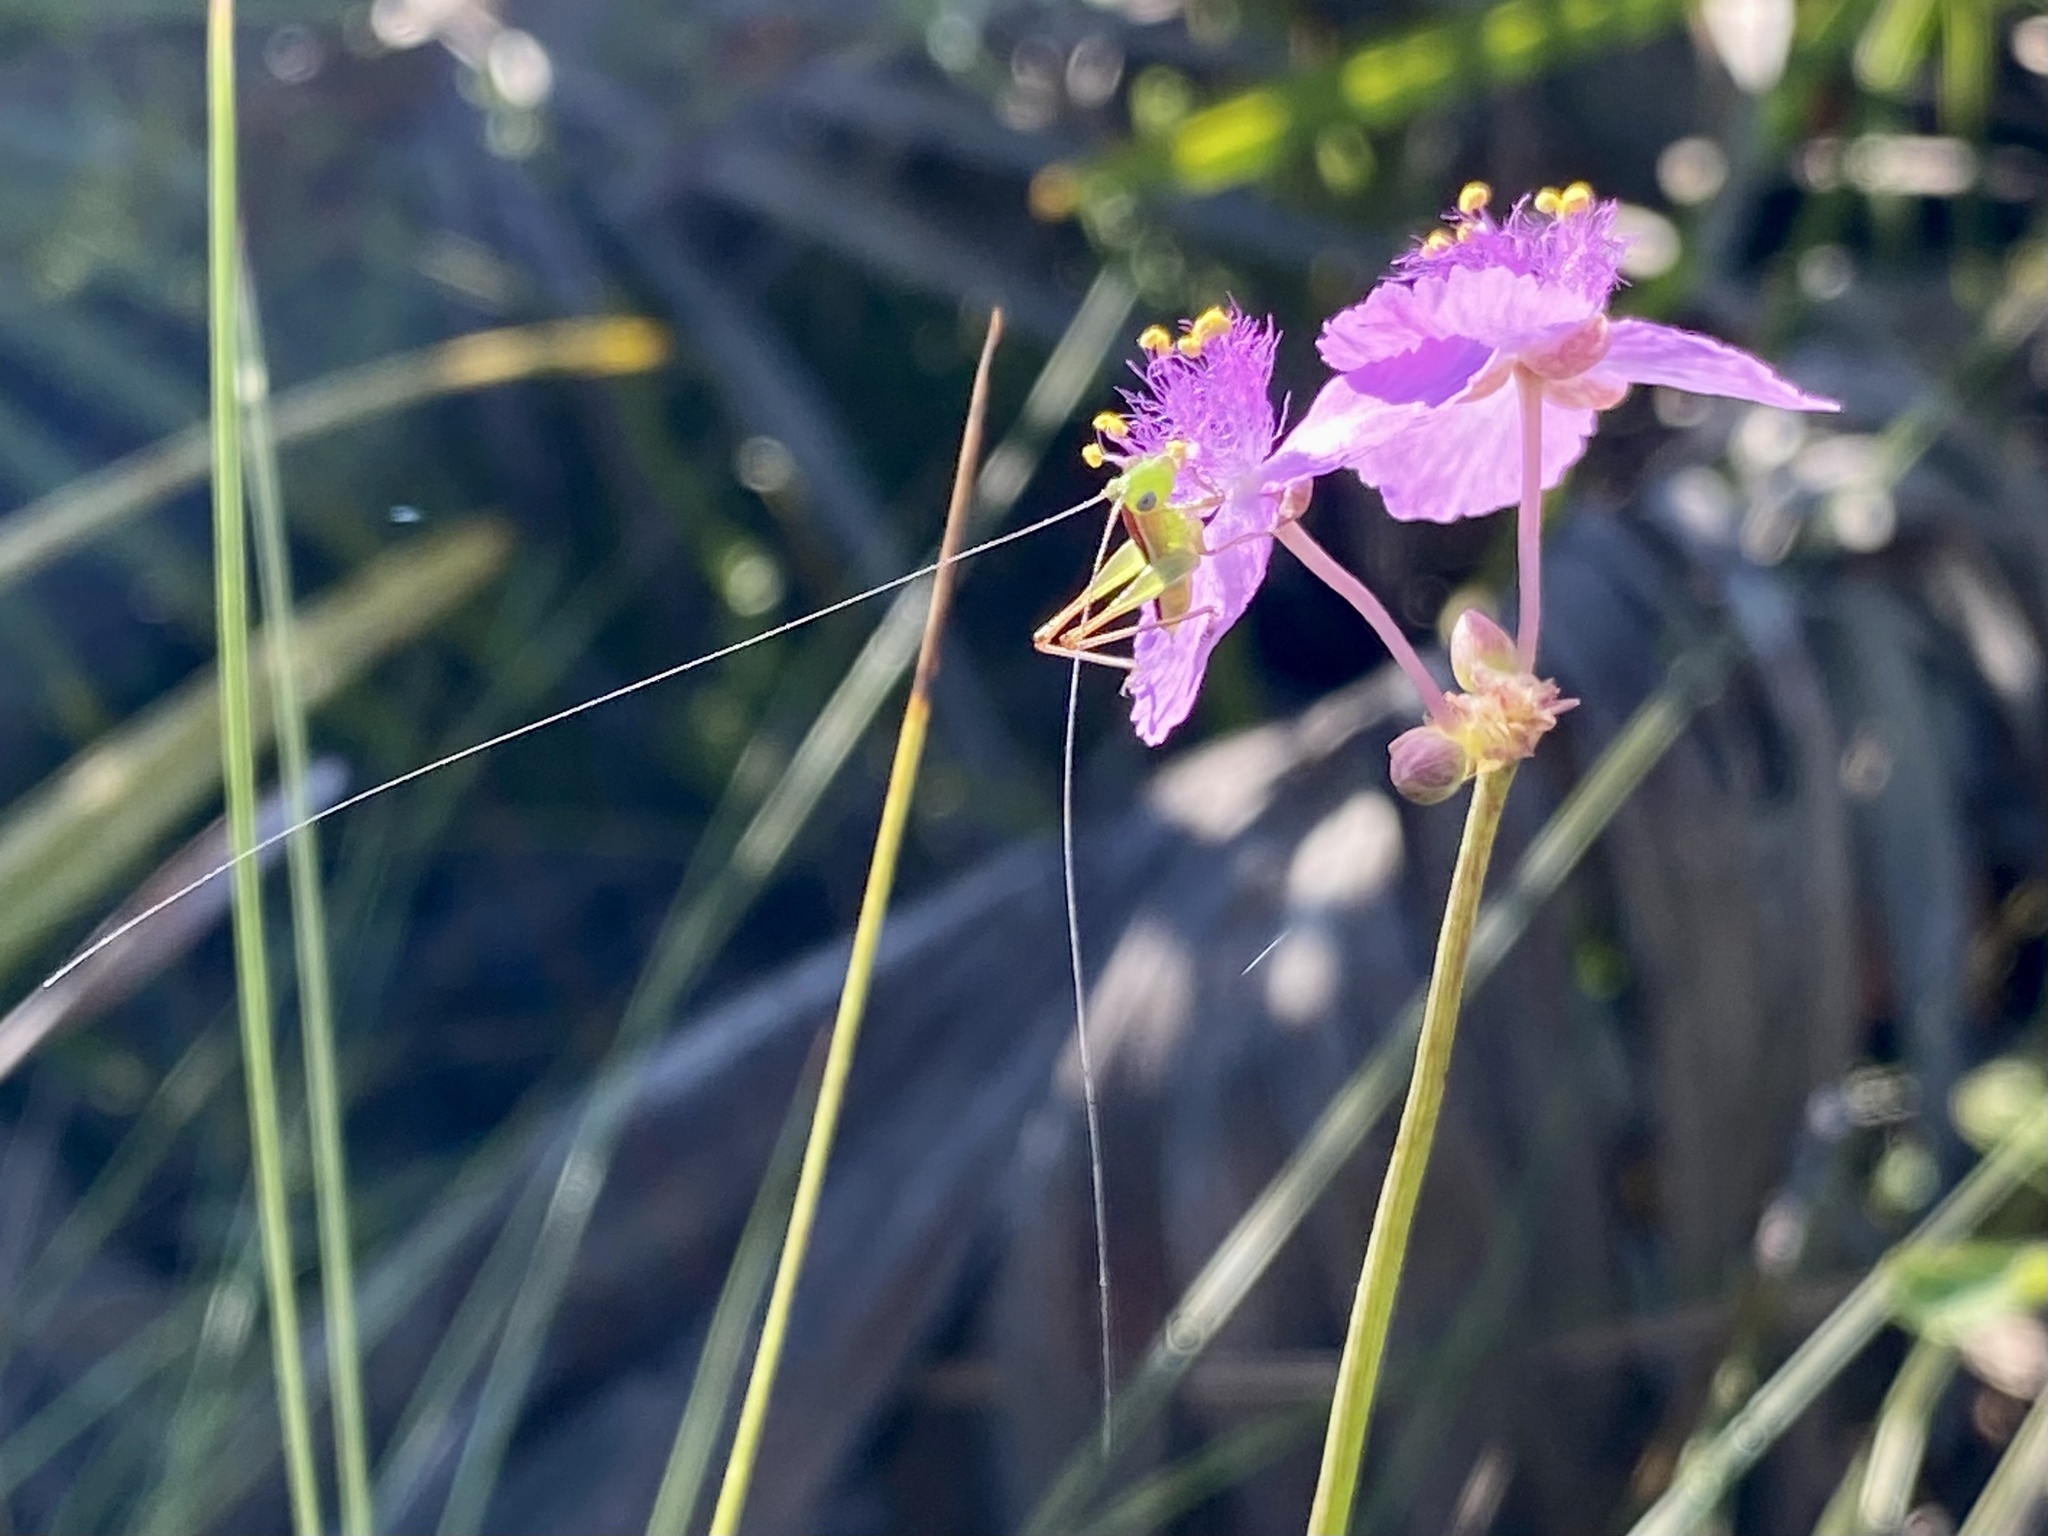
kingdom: Animalia
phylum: Arthropoda
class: Insecta
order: Orthoptera
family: Tettigoniidae
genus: Odontoxiphidium
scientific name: Odontoxiphidium apterum
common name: Wingless meadow katydid
